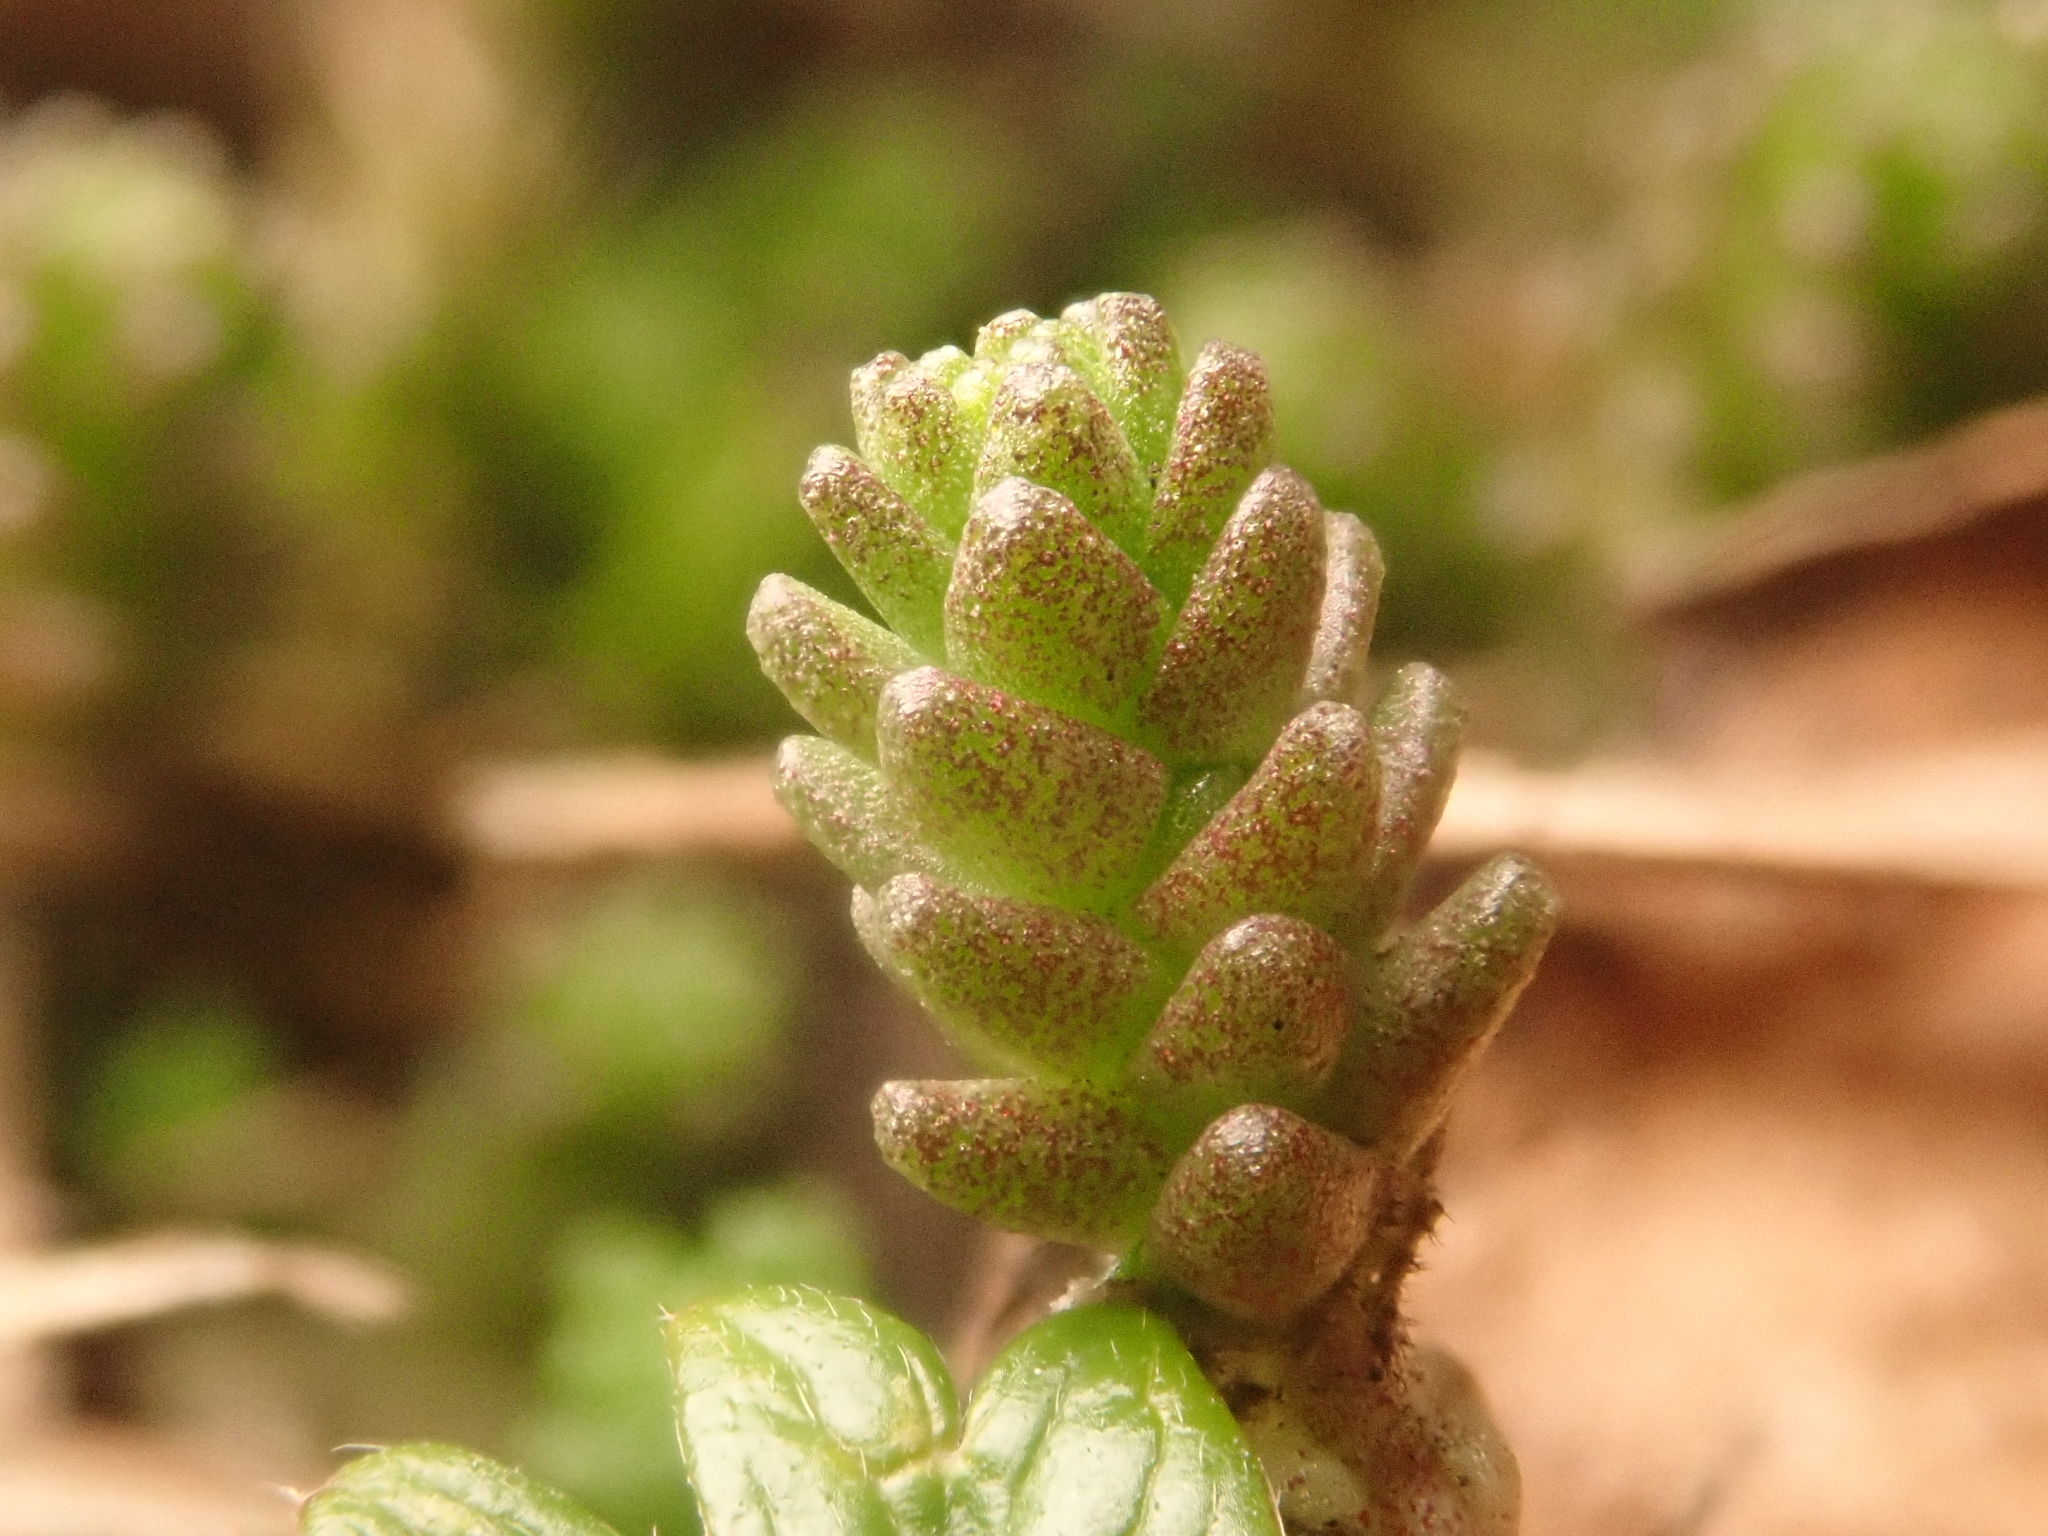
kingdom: Plantae
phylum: Tracheophyta
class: Magnoliopsida
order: Saxifragales
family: Crassulaceae
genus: Sedum
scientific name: Sedum acre
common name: Biting stonecrop
